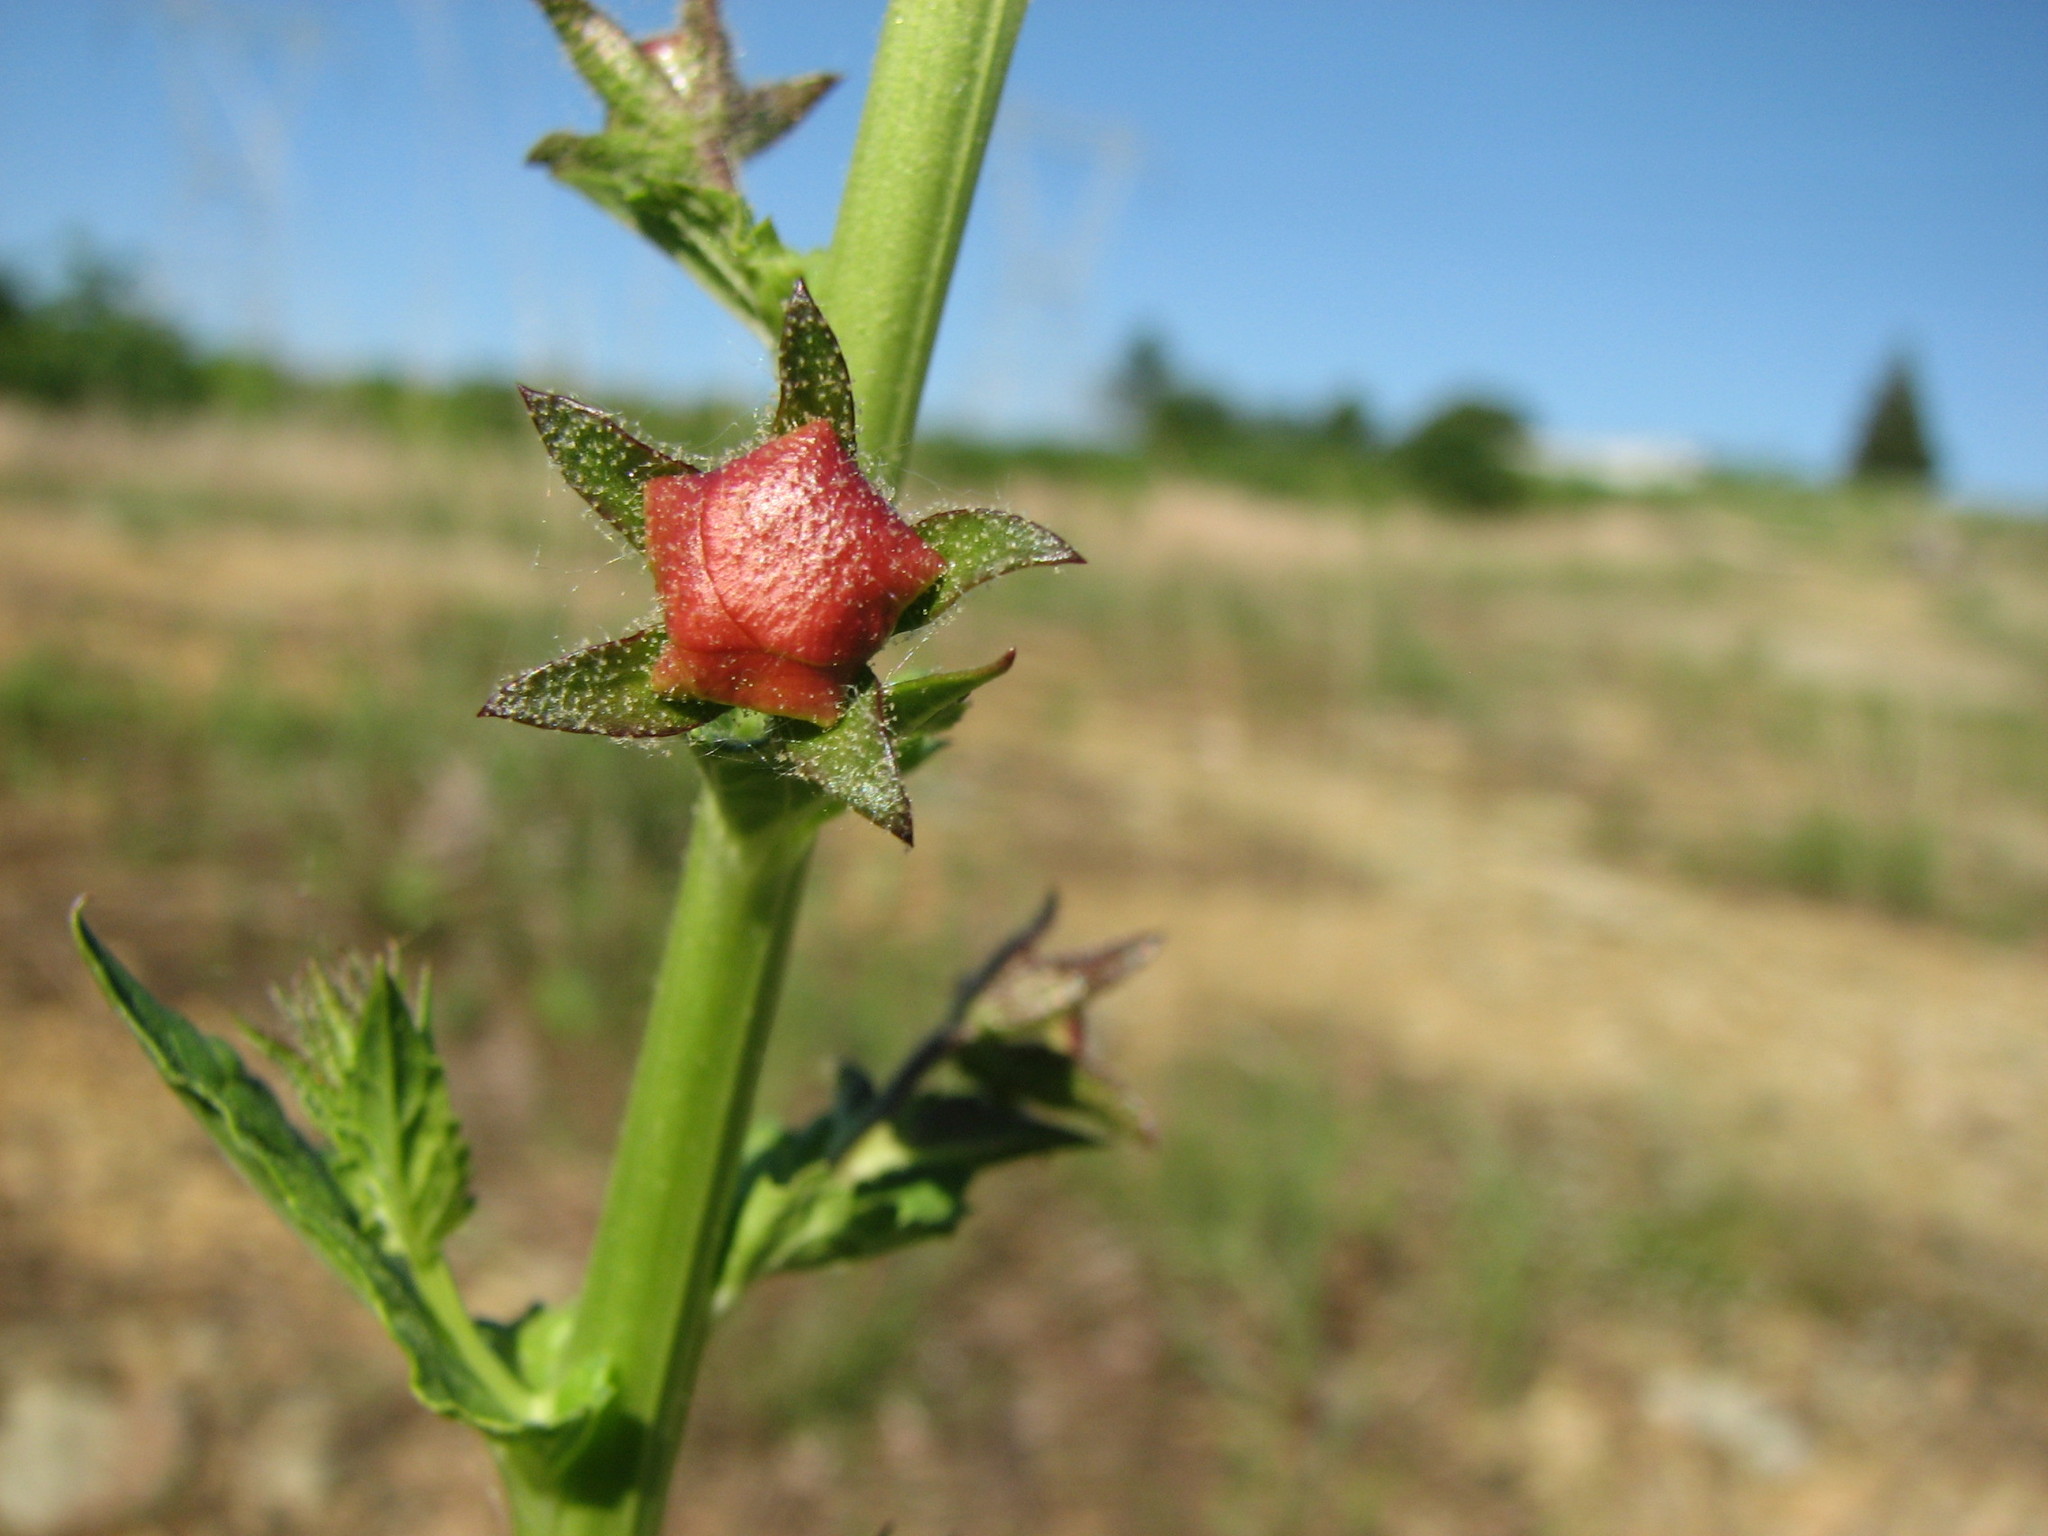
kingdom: Plantae
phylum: Tracheophyta
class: Magnoliopsida
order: Lamiales
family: Scrophulariaceae
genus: Verbascum
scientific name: Verbascum blattaria
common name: Moth mullein
